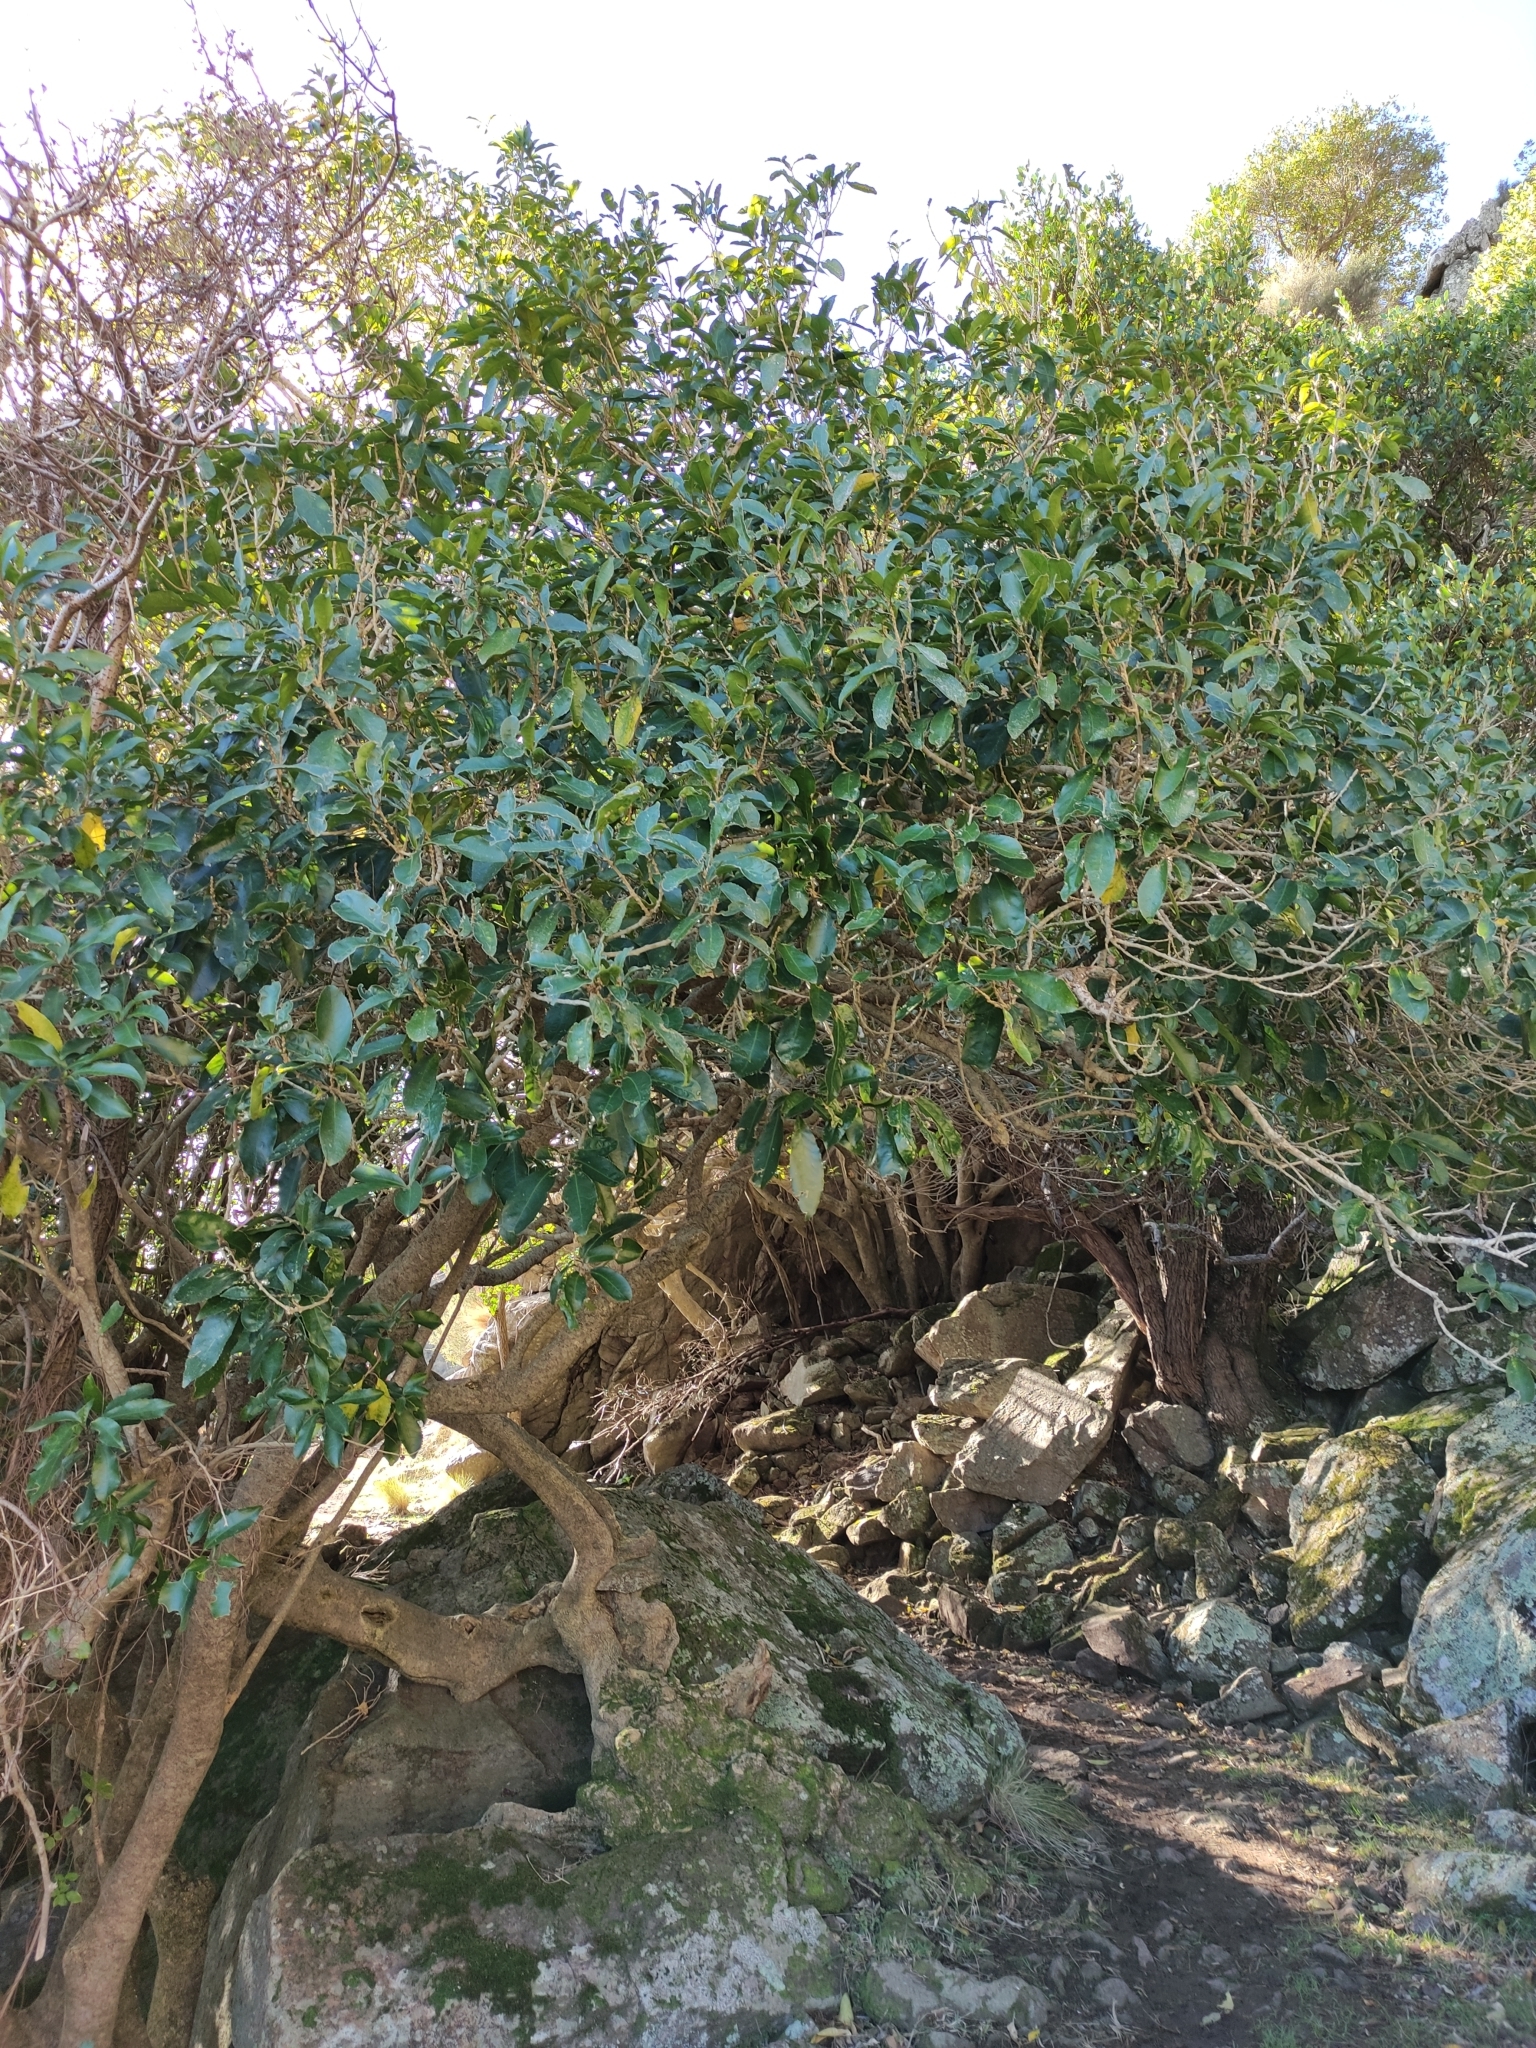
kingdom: Plantae
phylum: Tracheophyta
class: Magnoliopsida
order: Malpighiales
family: Violaceae
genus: Melicytus
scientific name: Melicytus ramiflorus
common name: Mahoe
